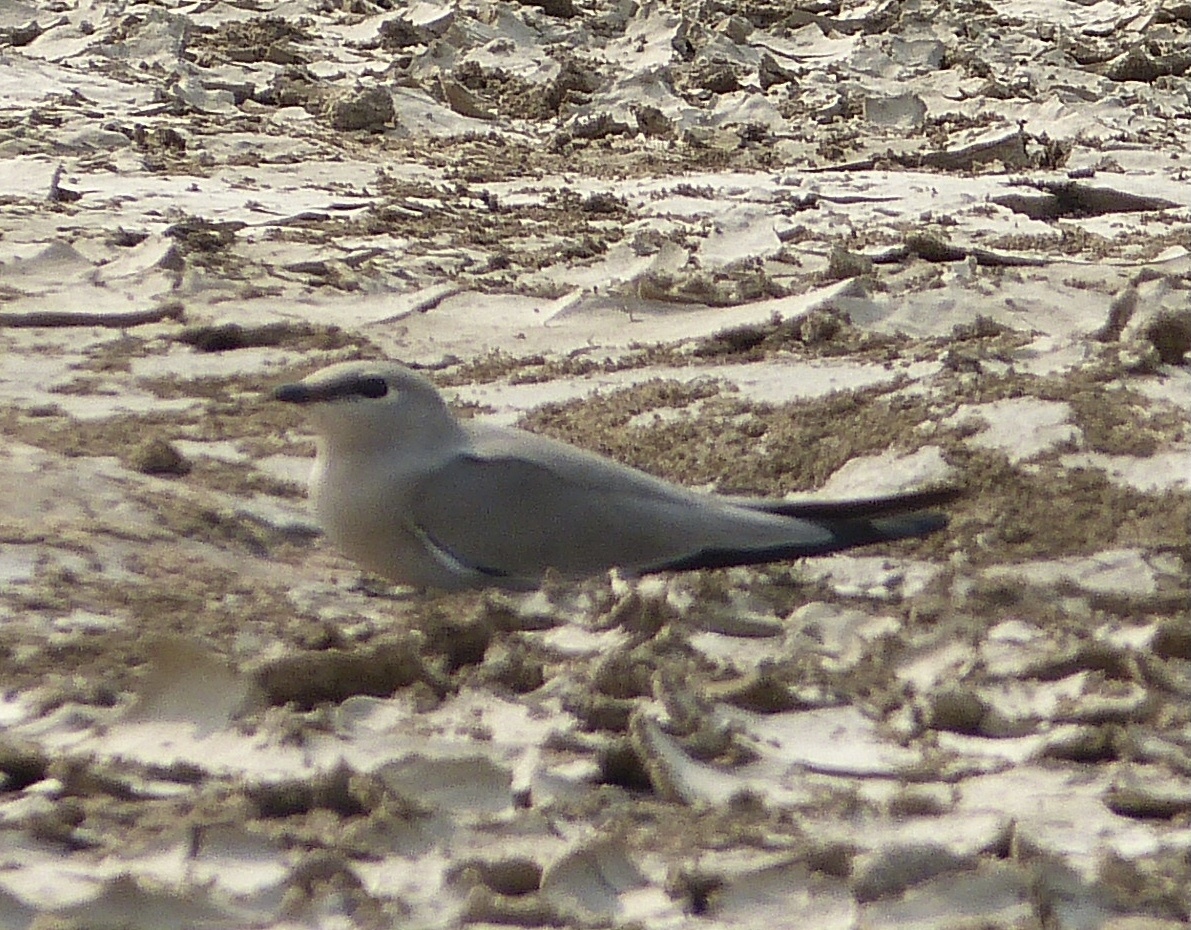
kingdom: Animalia
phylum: Chordata
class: Aves
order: Charadriiformes
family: Glareolidae
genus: Glareola
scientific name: Glareola lactea
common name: Small pratincole
